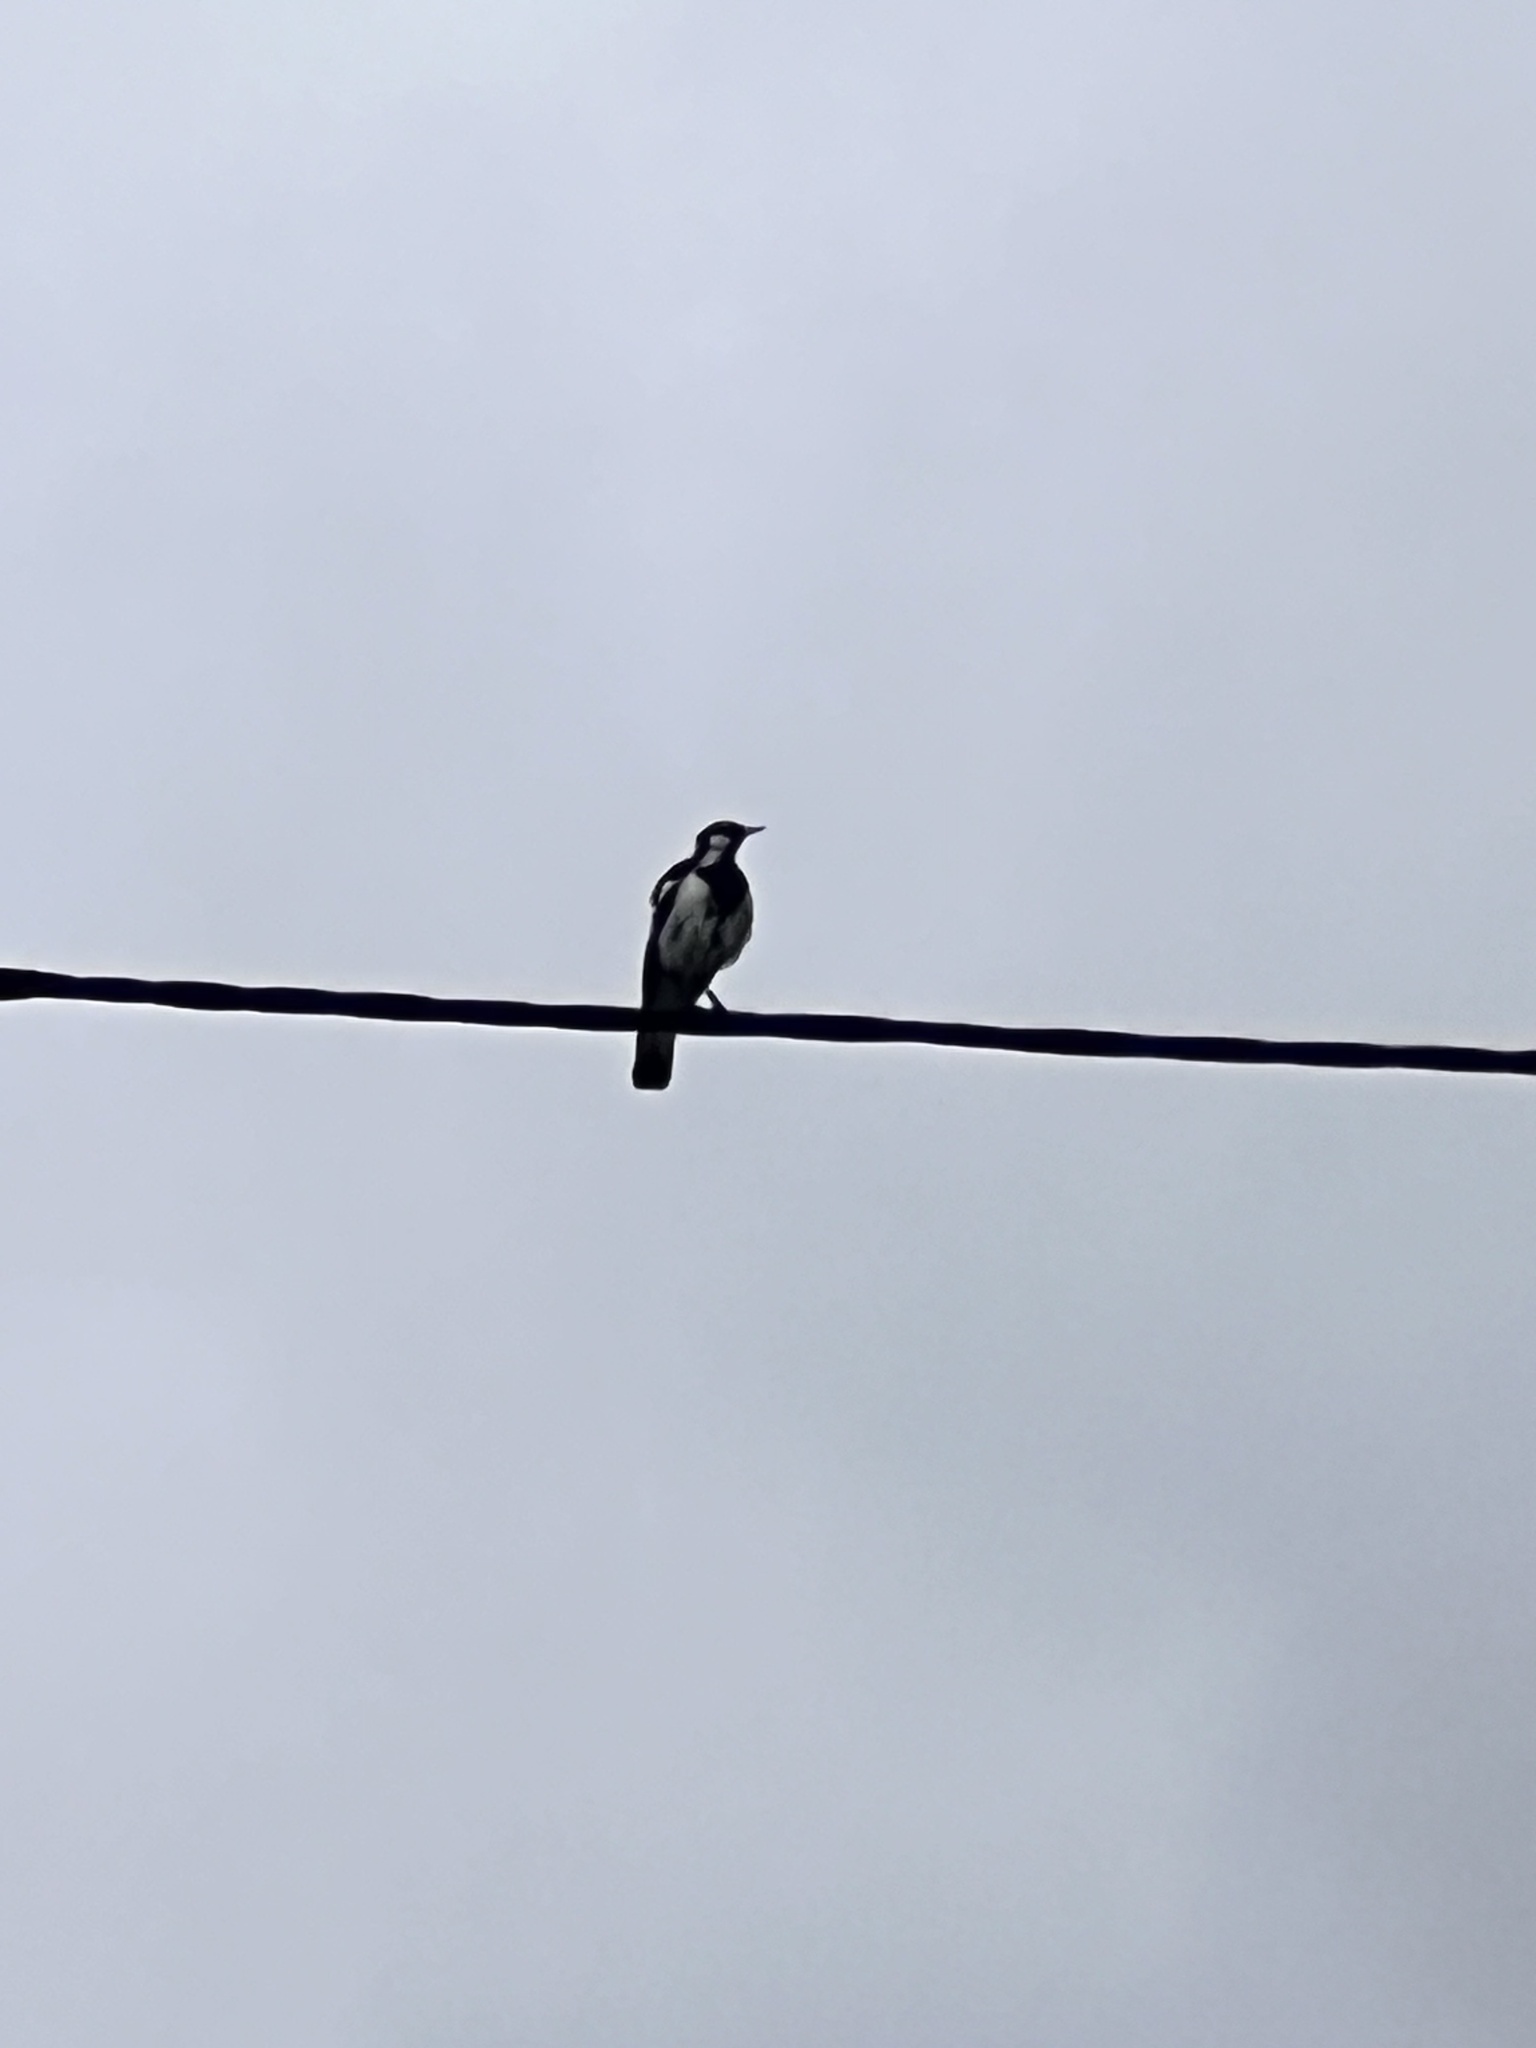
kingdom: Animalia
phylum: Chordata
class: Aves
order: Passeriformes
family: Monarchidae
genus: Grallina
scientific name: Grallina cyanoleuca
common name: Magpie-lark
